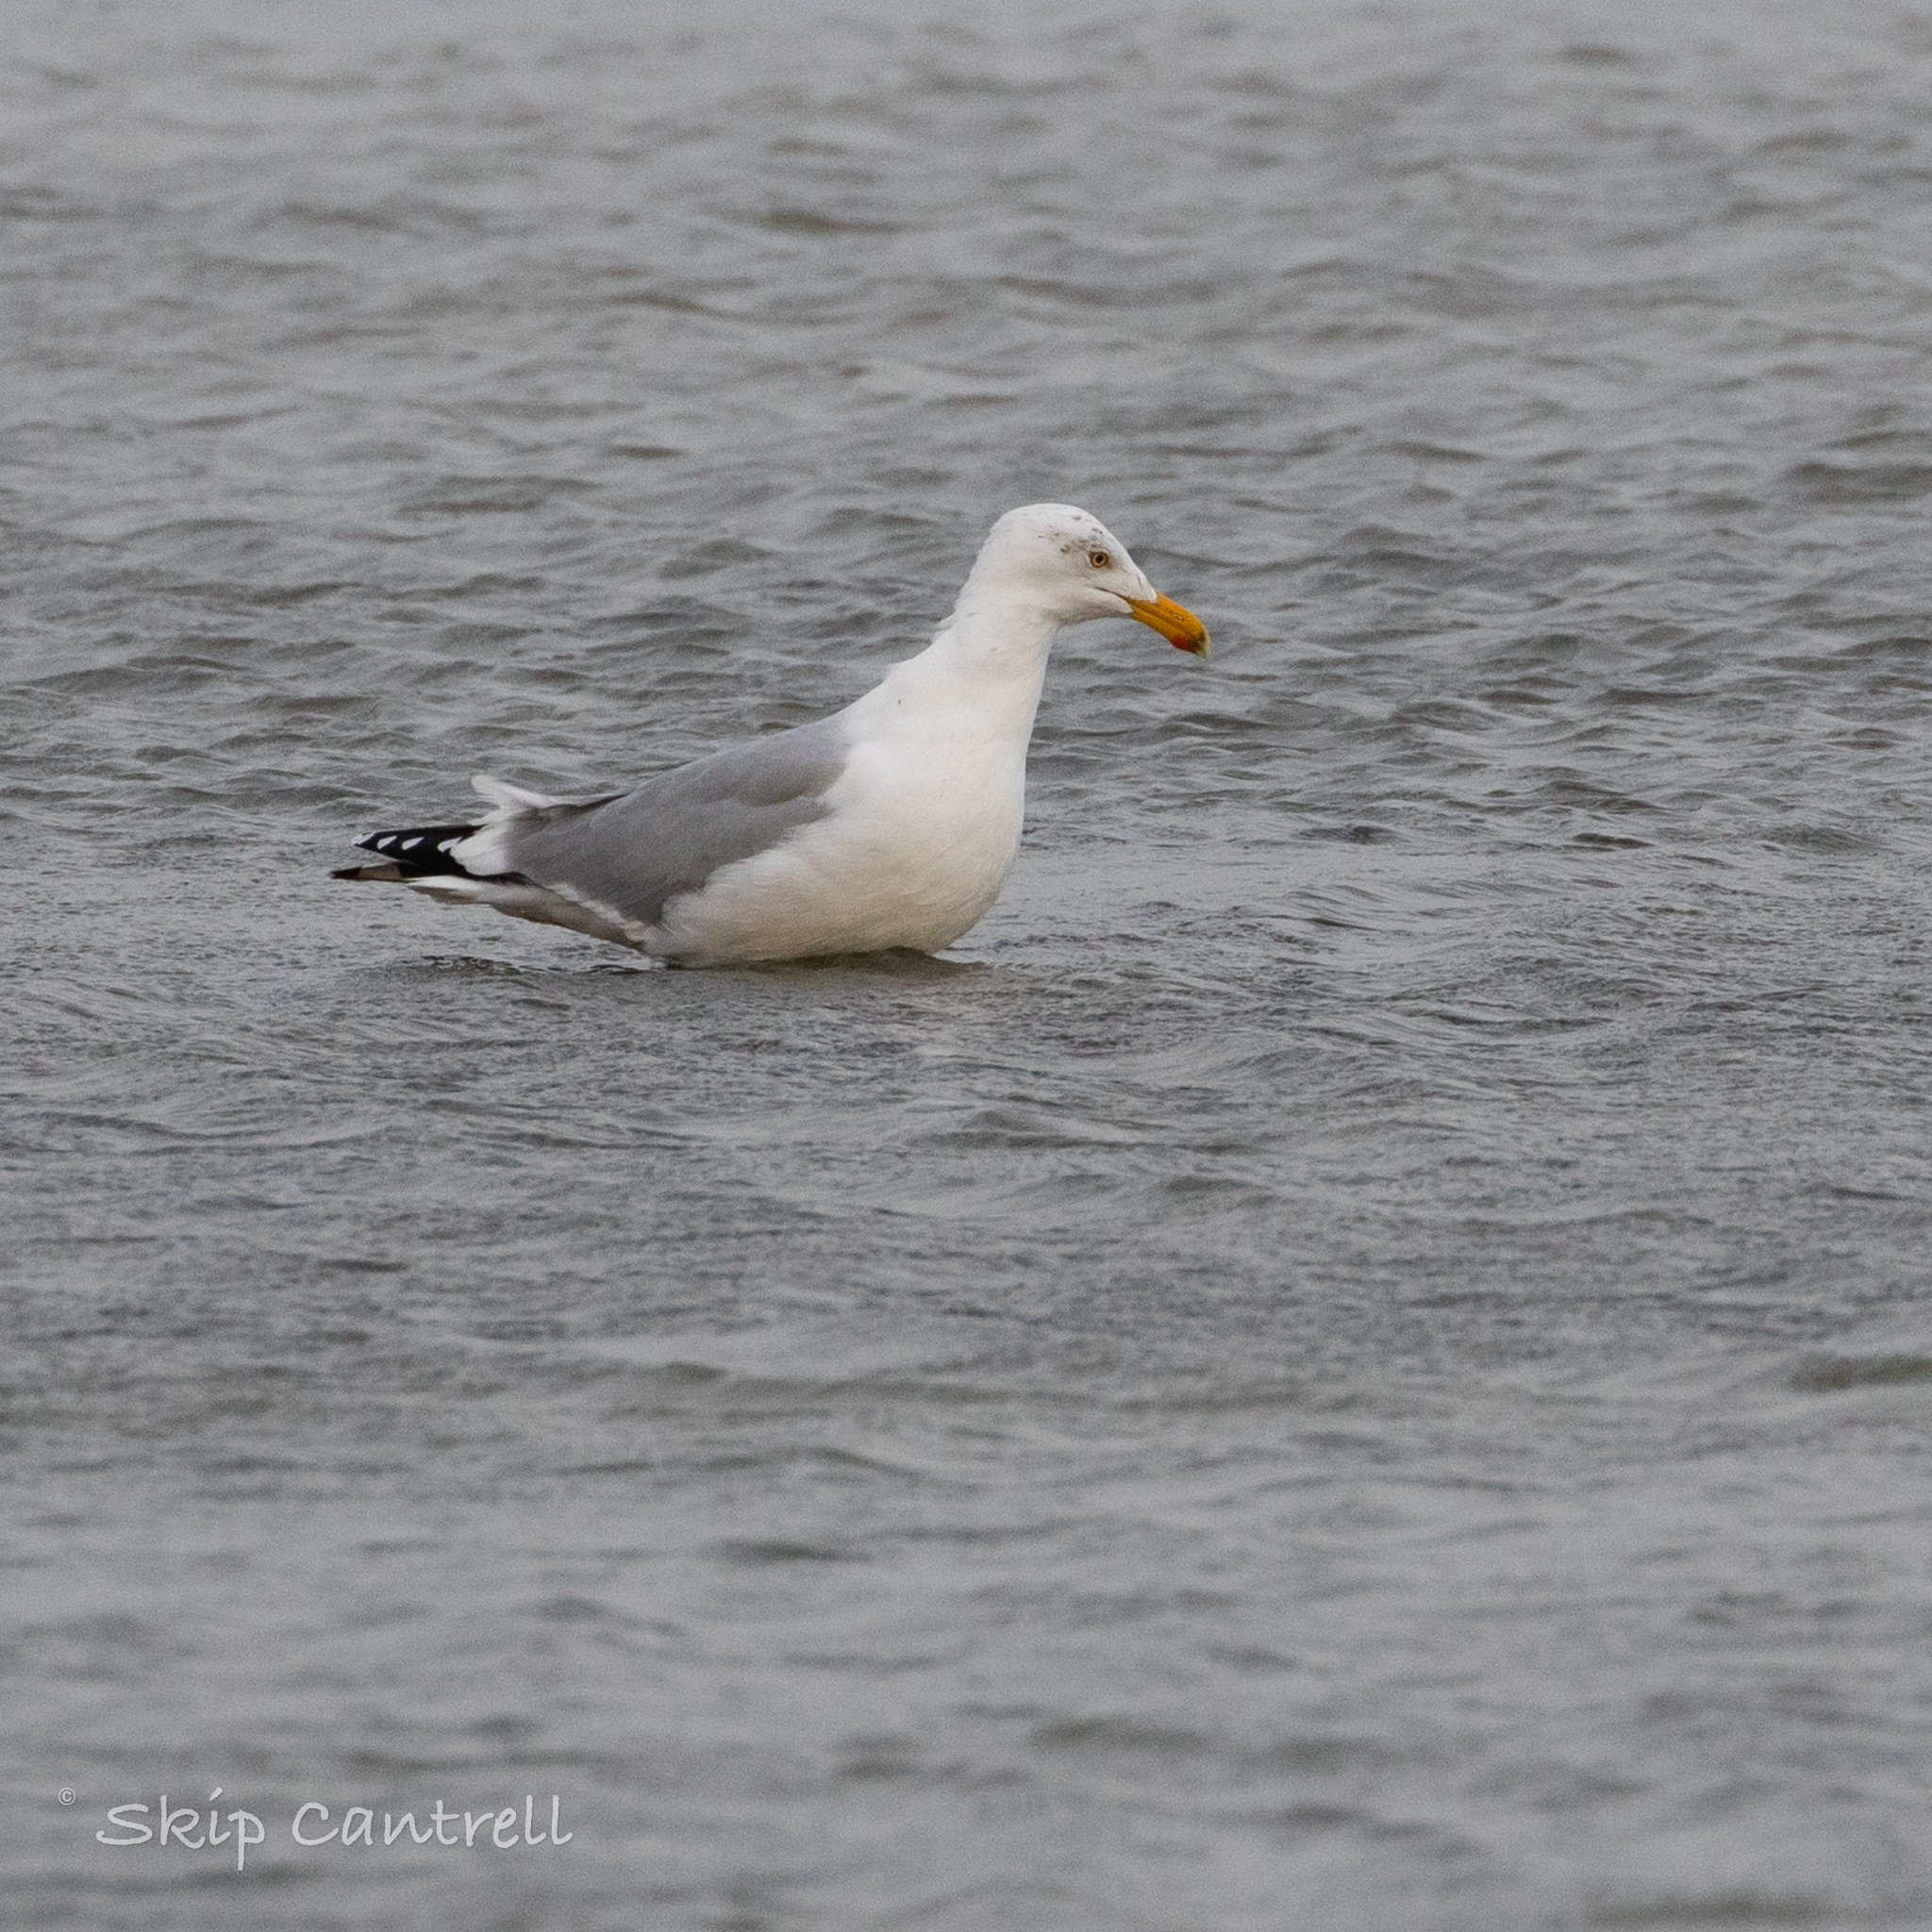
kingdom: Animalia
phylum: Chordata
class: Aves
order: Charadriiformes
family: Laridae
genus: Larus
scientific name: Larus argentatus
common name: Herring gull
